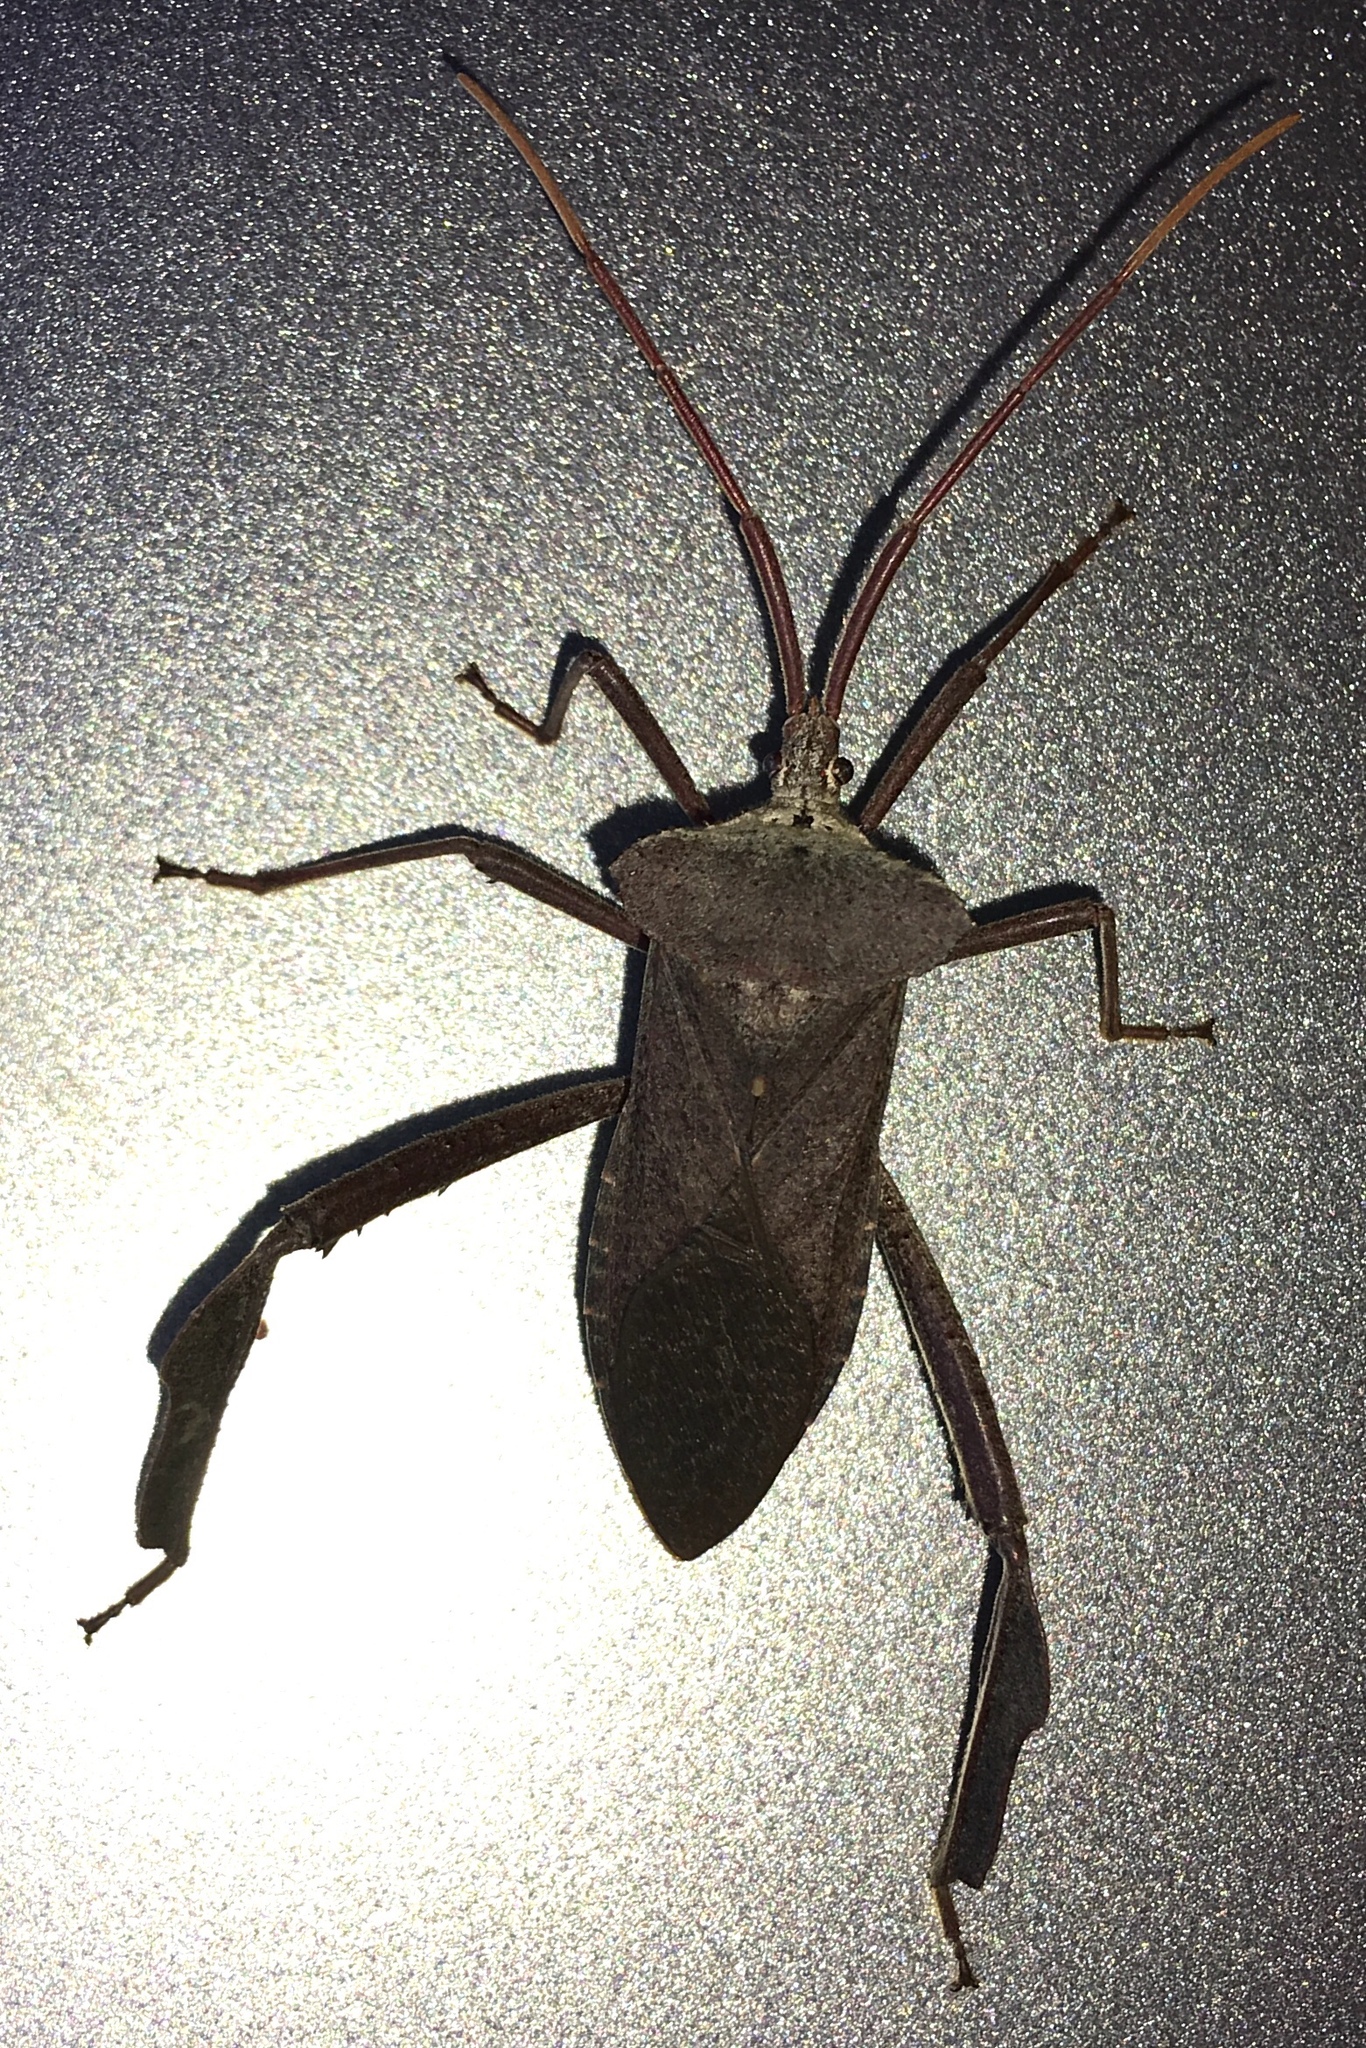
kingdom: Animalia
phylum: Arthropoda
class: Insecta
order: Hemiptera
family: Coreidae
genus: Acanthocephala
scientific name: Acanthocephala declivis
